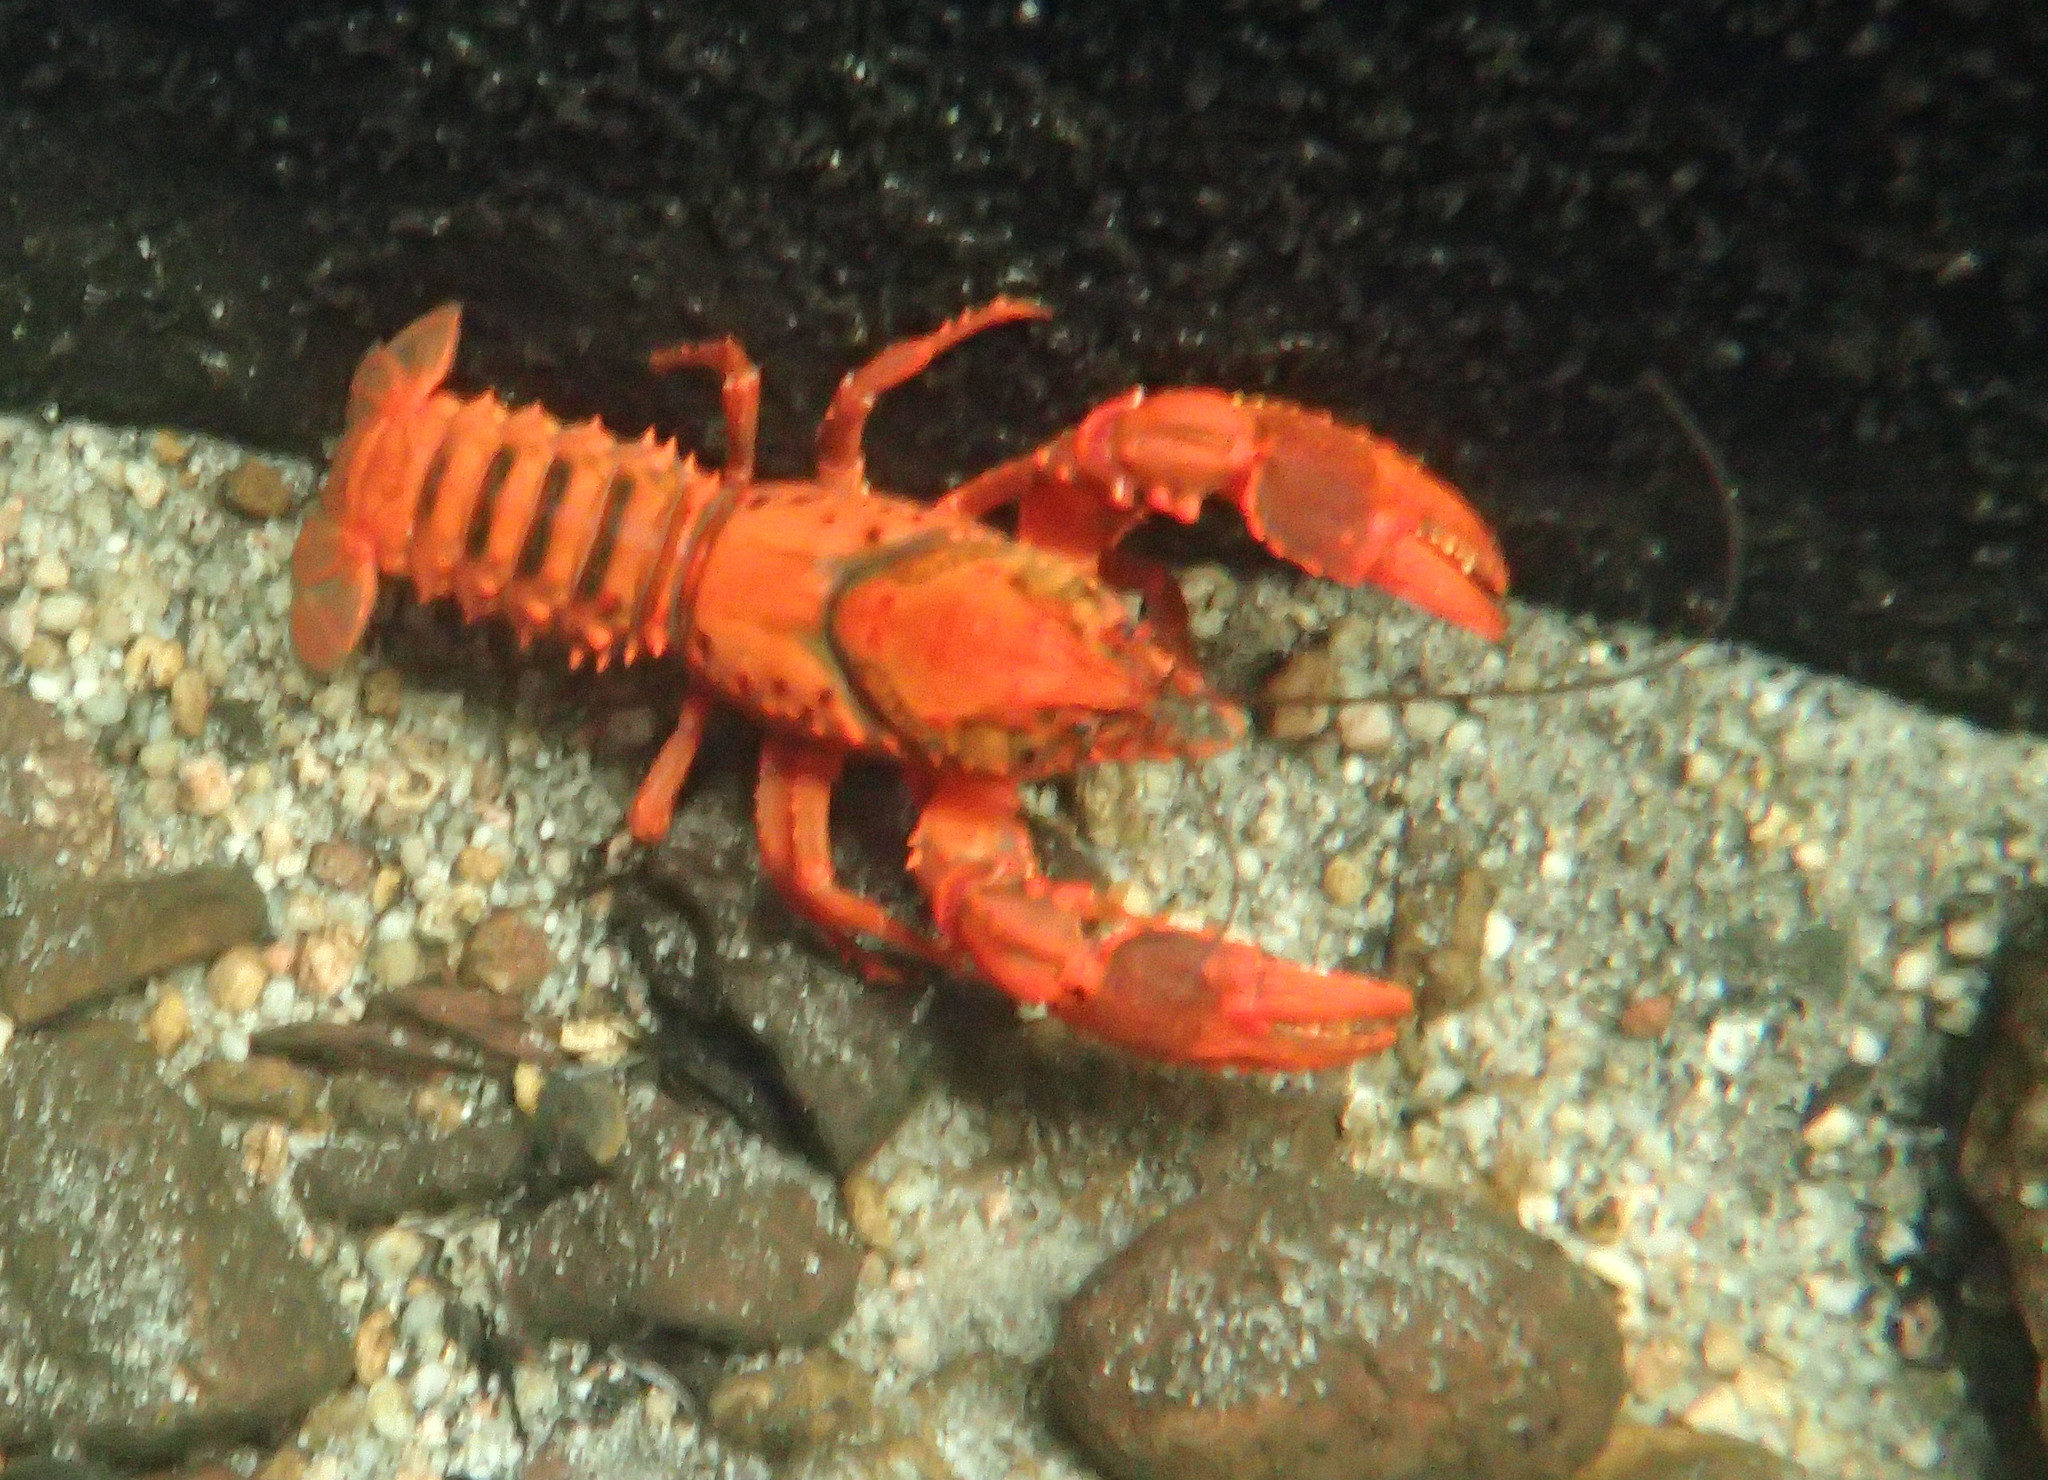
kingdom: Animalia
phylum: Arthropoda
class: Malacostraca
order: Decapoda
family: Parastacidae
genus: Euastacus
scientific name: Euastacus australasiensis
